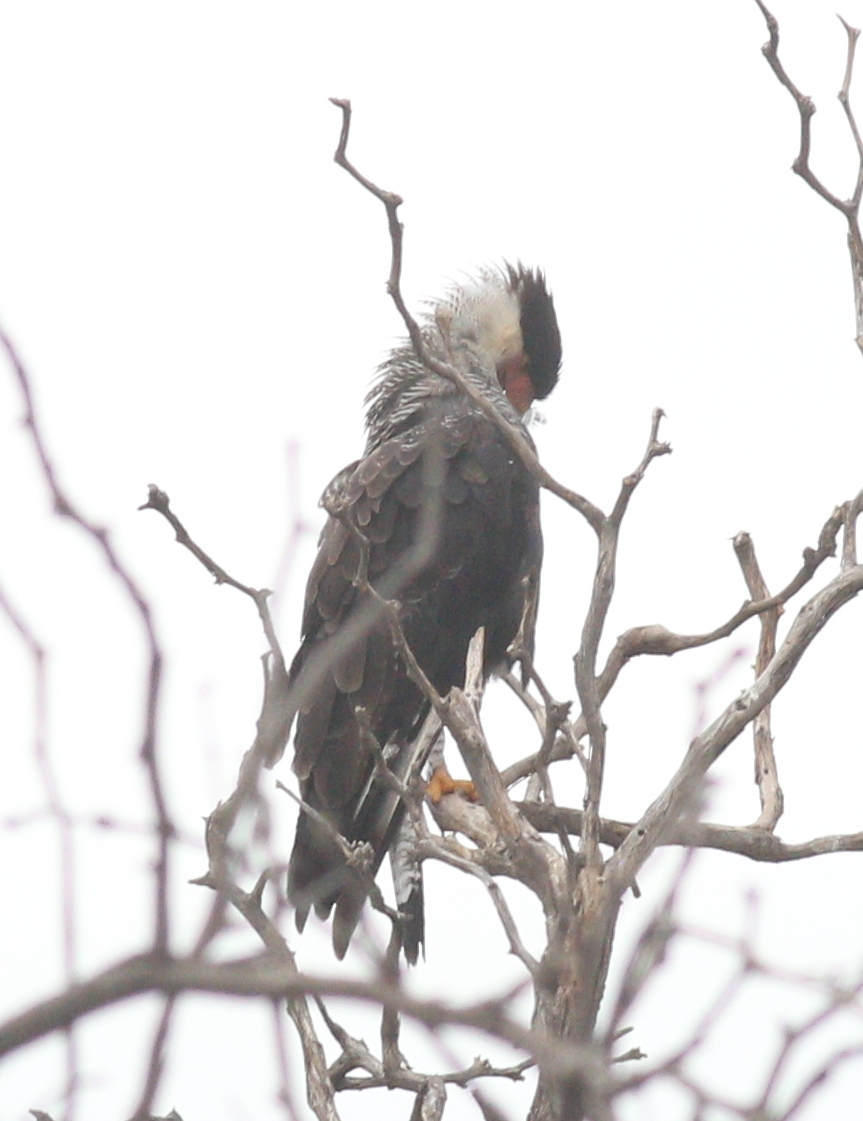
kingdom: Animalia
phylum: Chordata
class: Aves
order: Falconiformes
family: Falconidae
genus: Caracara
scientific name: Caracara plancus
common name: Southern caracara
